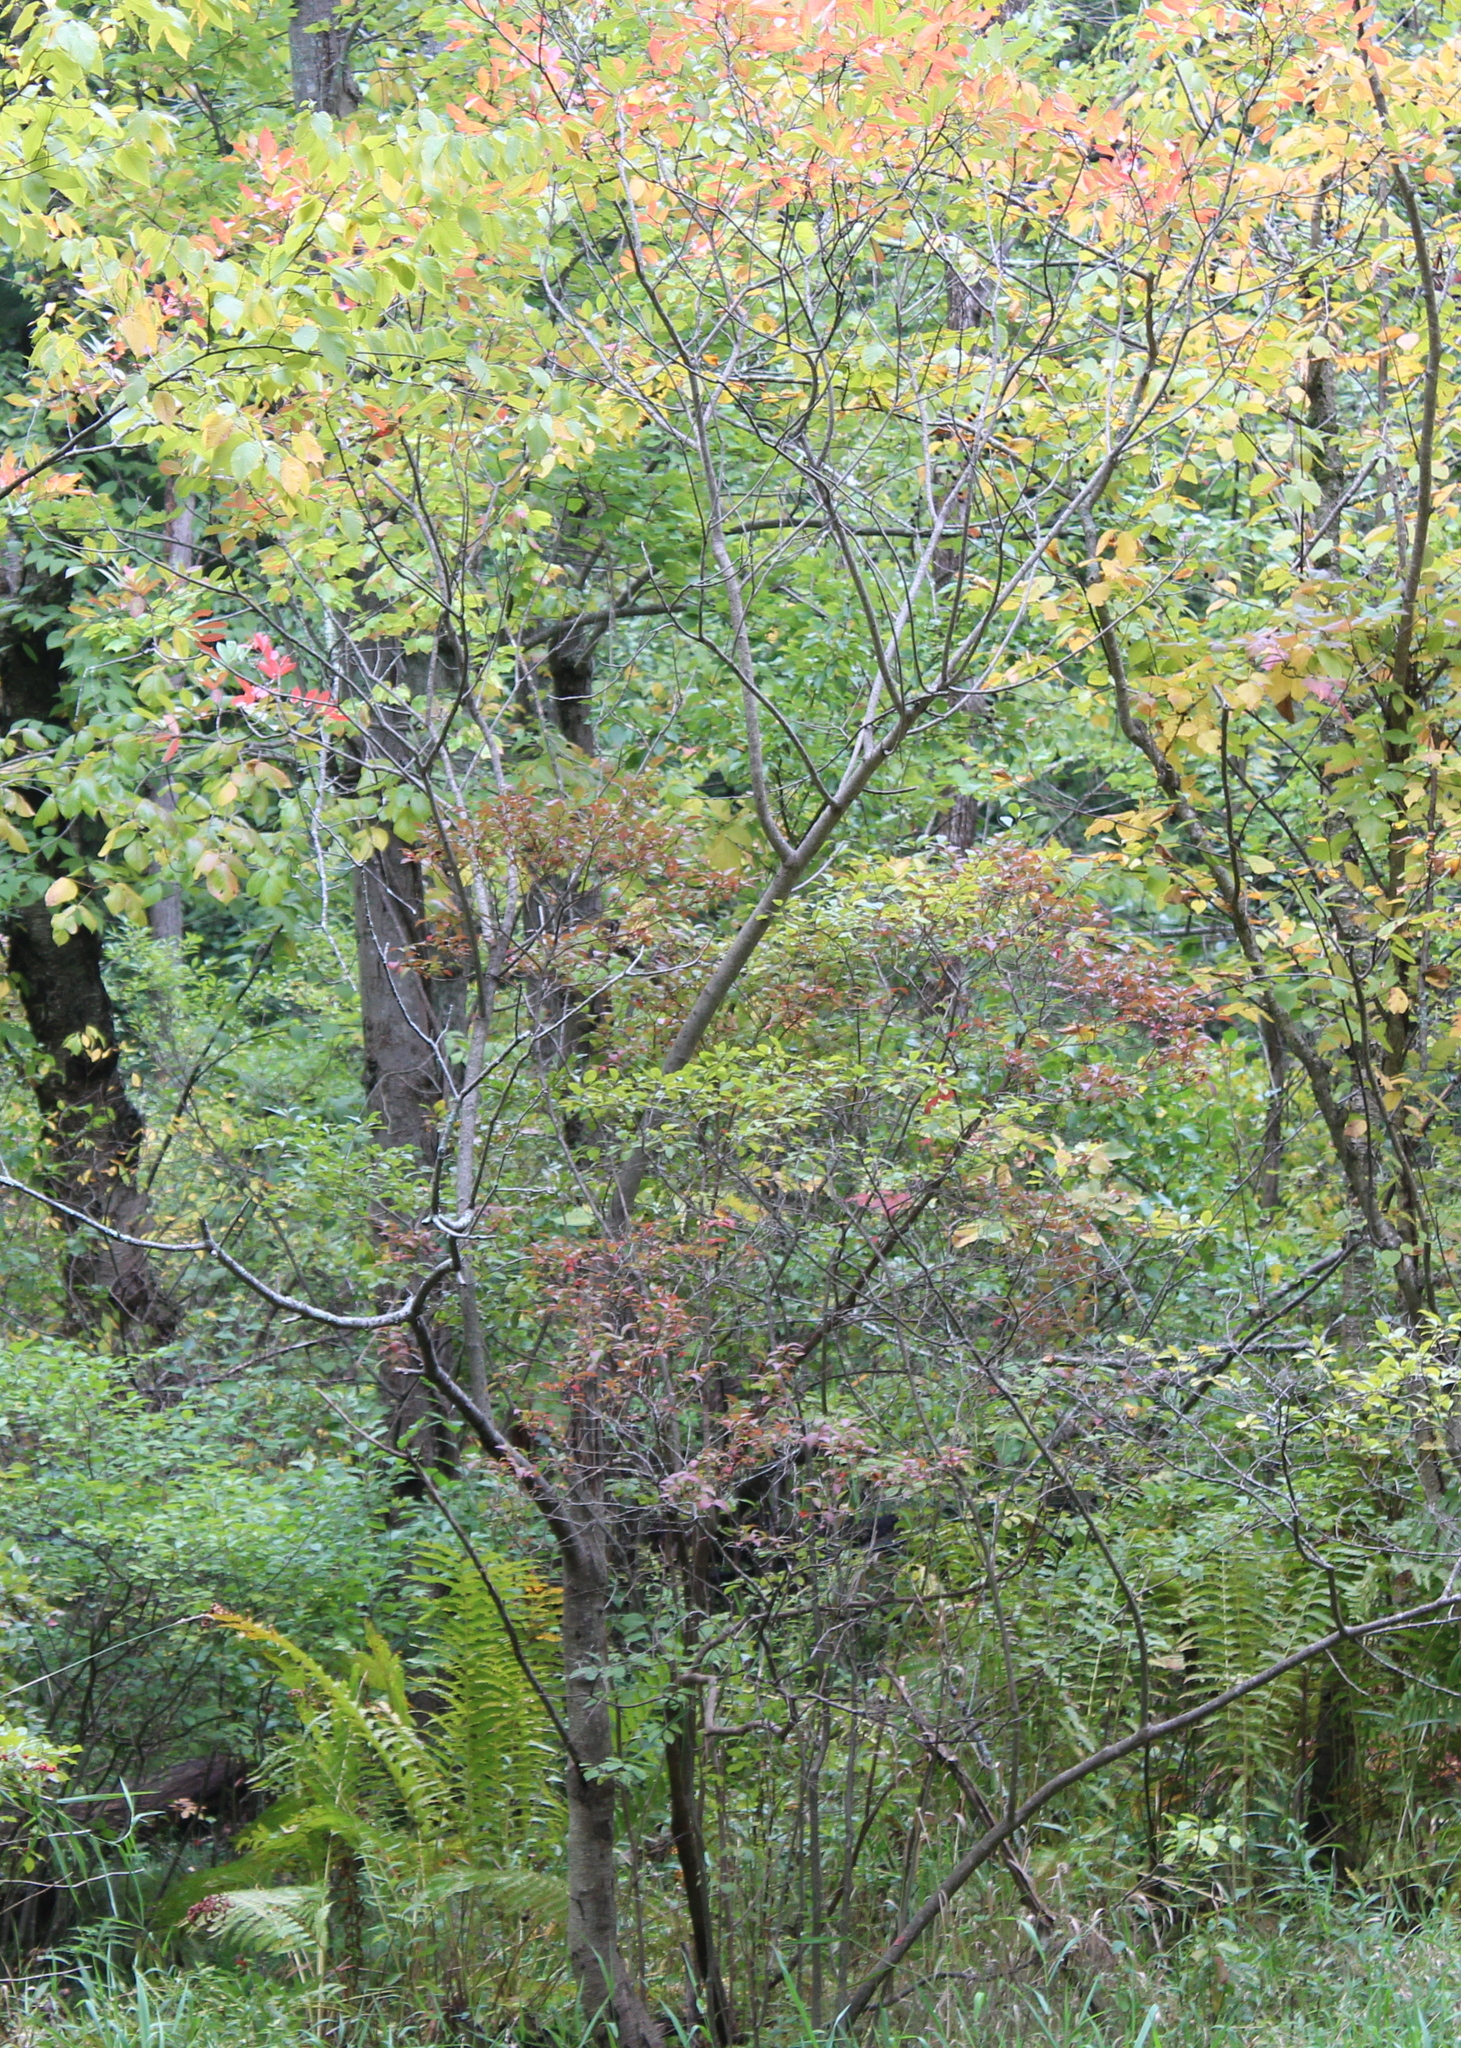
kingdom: Plantae
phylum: Tracheophyta
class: Magnoliopsida
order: Sapindales
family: Anacardiaceae
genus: Toxicodendron
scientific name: Toxicodendron vernix
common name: Poison sumac
